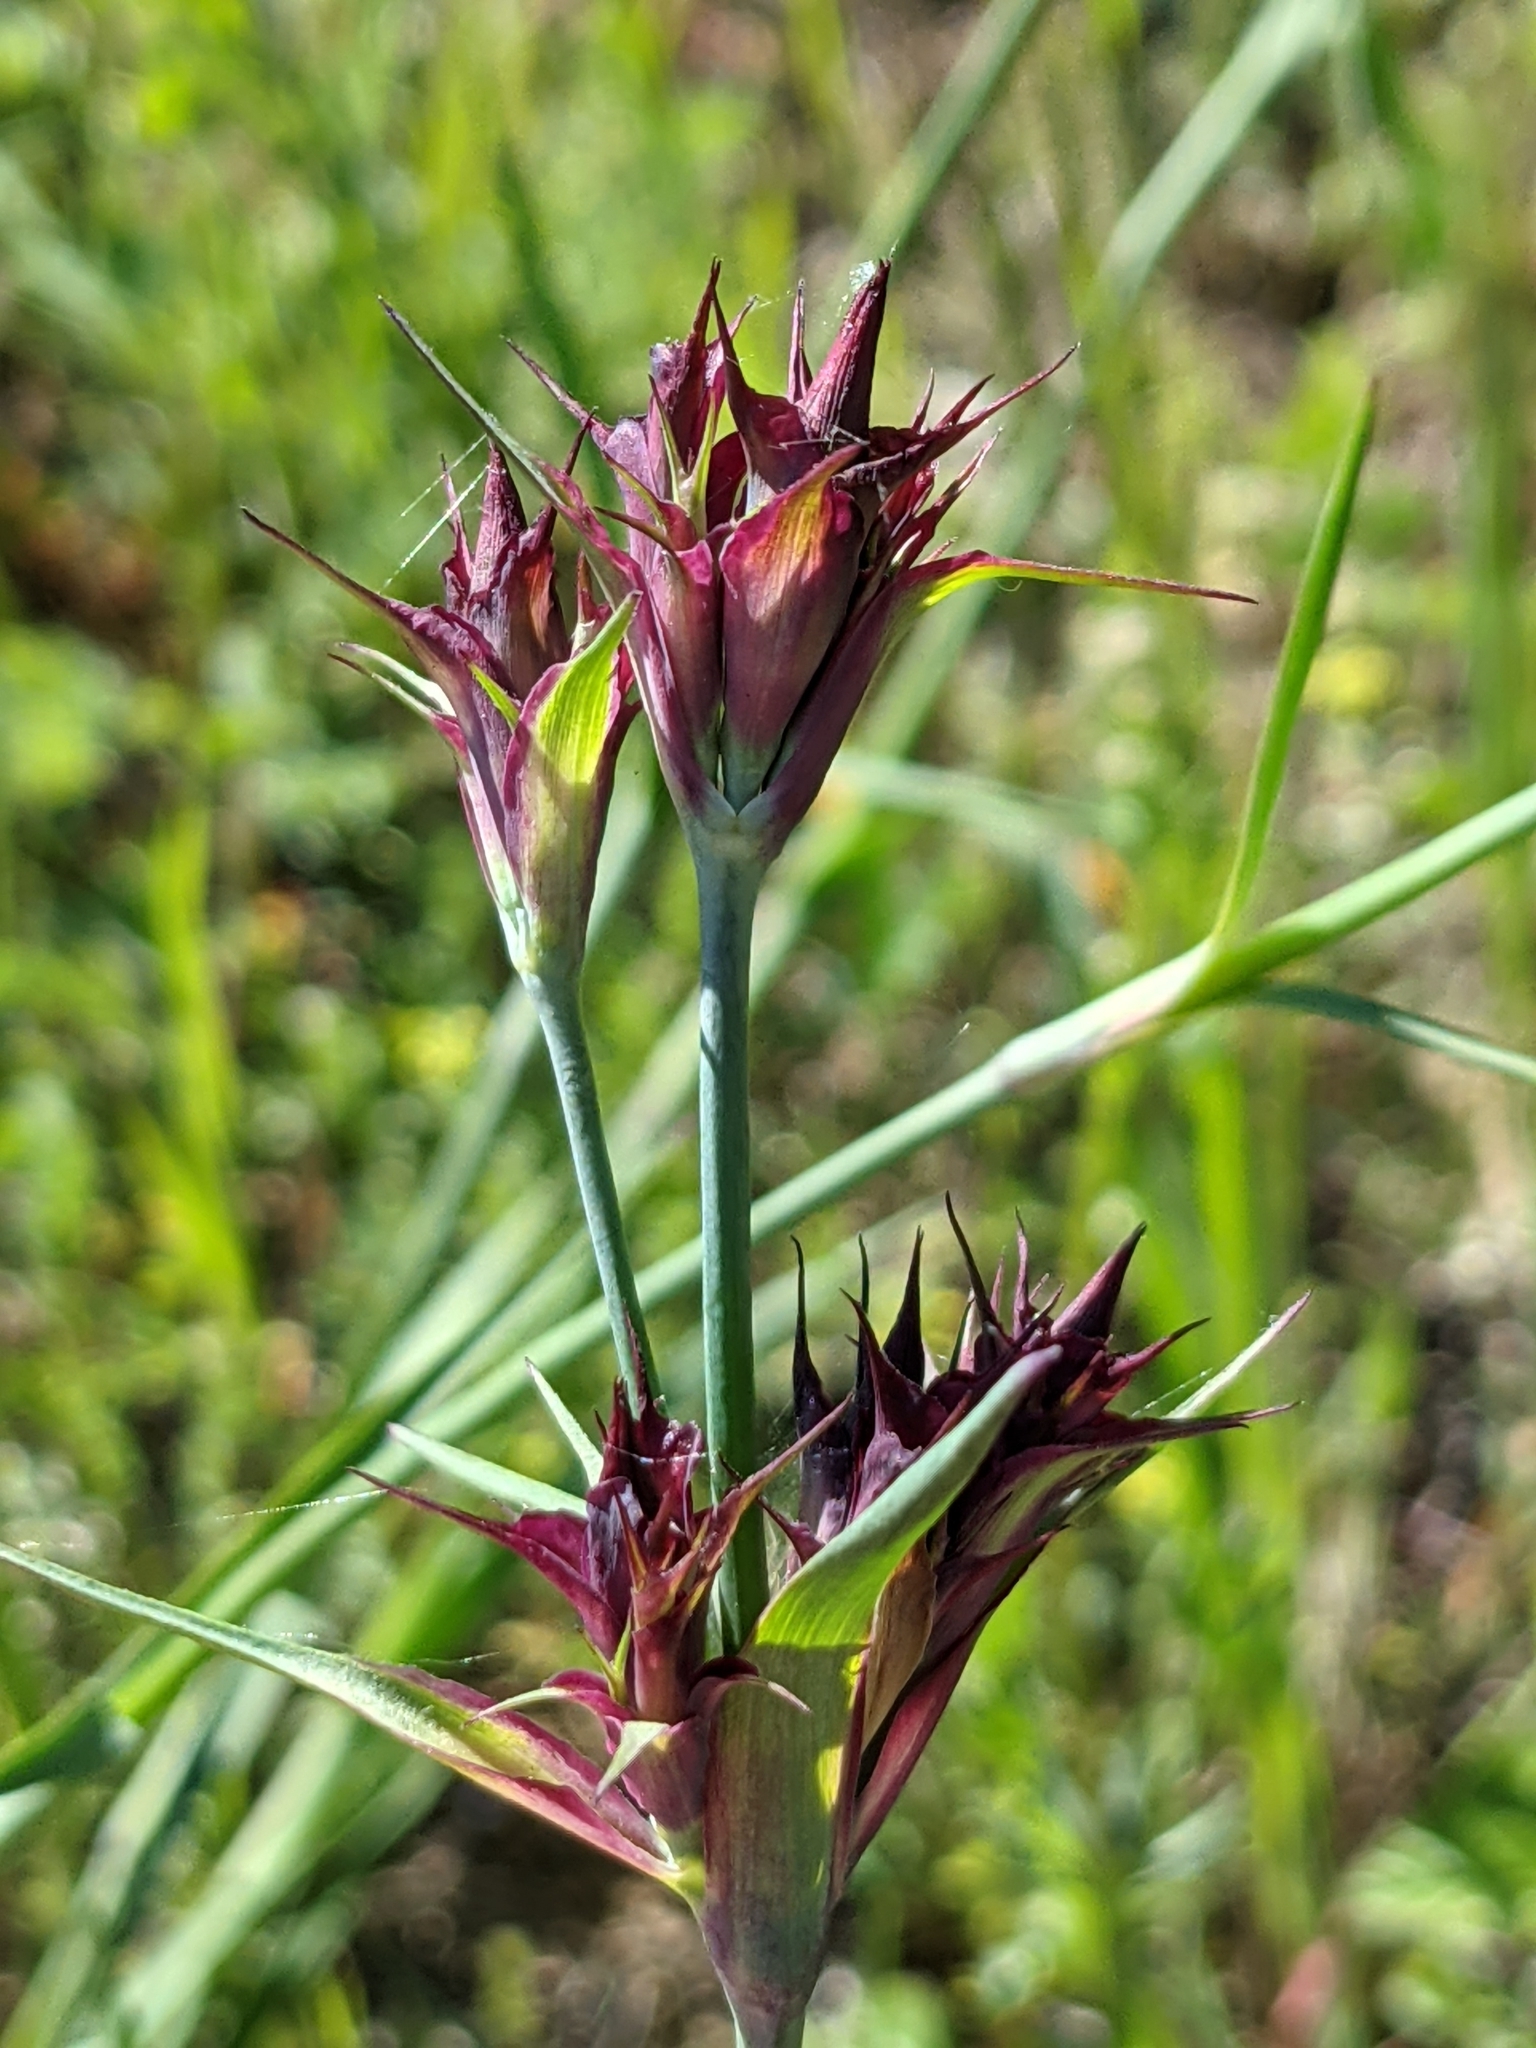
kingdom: Plantae
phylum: Tracheophyta
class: Magnoliopsida
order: Caryophyllales
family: Caryophyllaceae
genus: Dianthus
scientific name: Dianthus carthusianorum
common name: Carthusian pink
